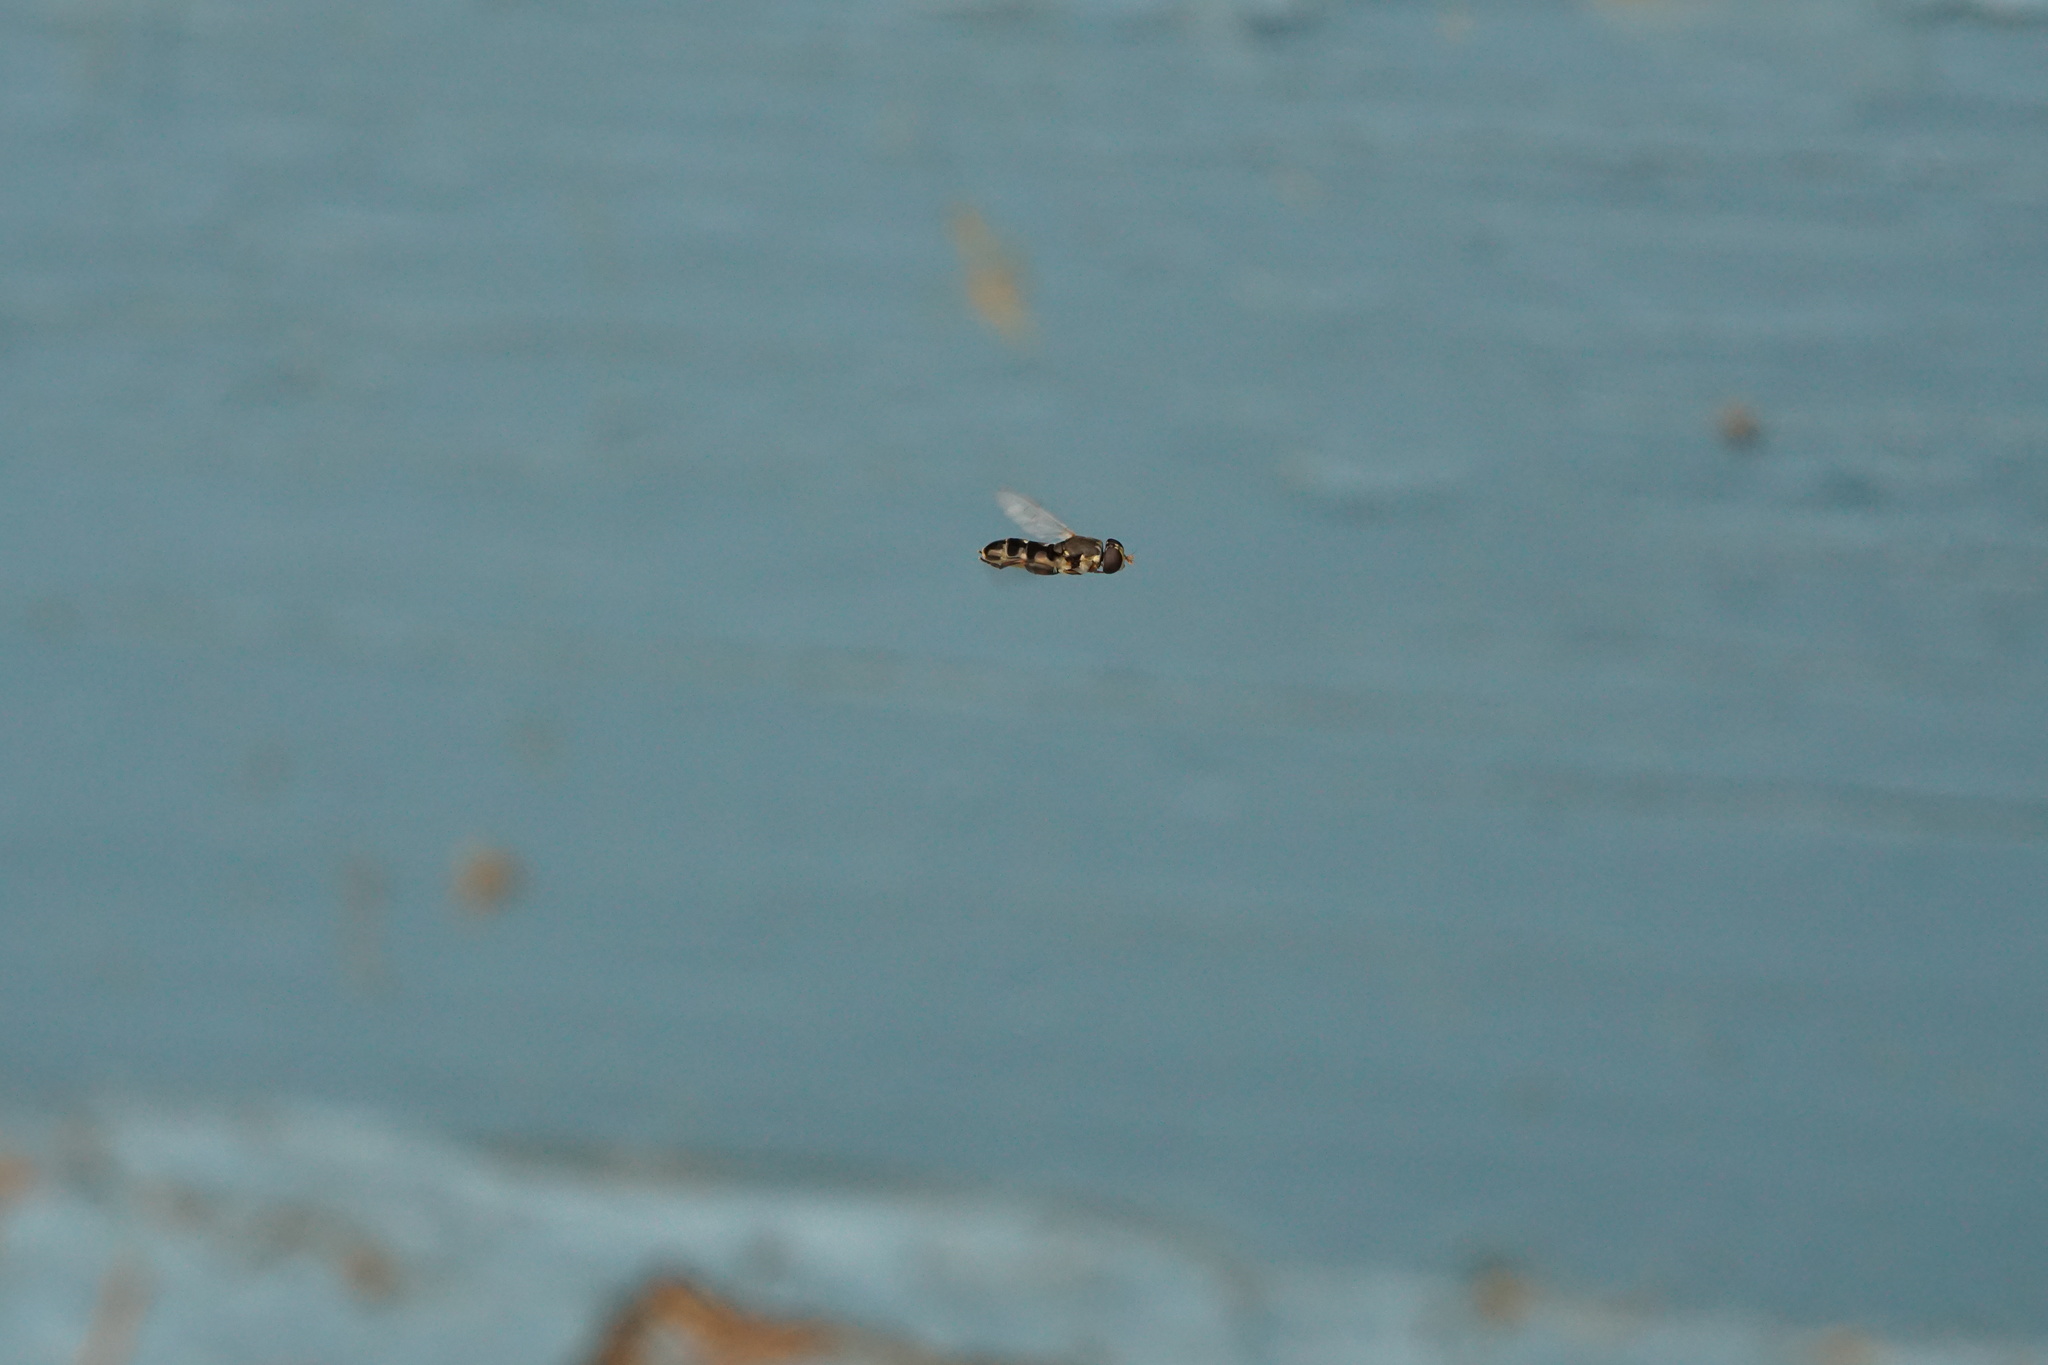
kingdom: Animalia
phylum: Arthropoda
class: Insecta
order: Diptera
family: Syrphidae
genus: Syritta
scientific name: Syritta pipiens
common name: Hover fly
